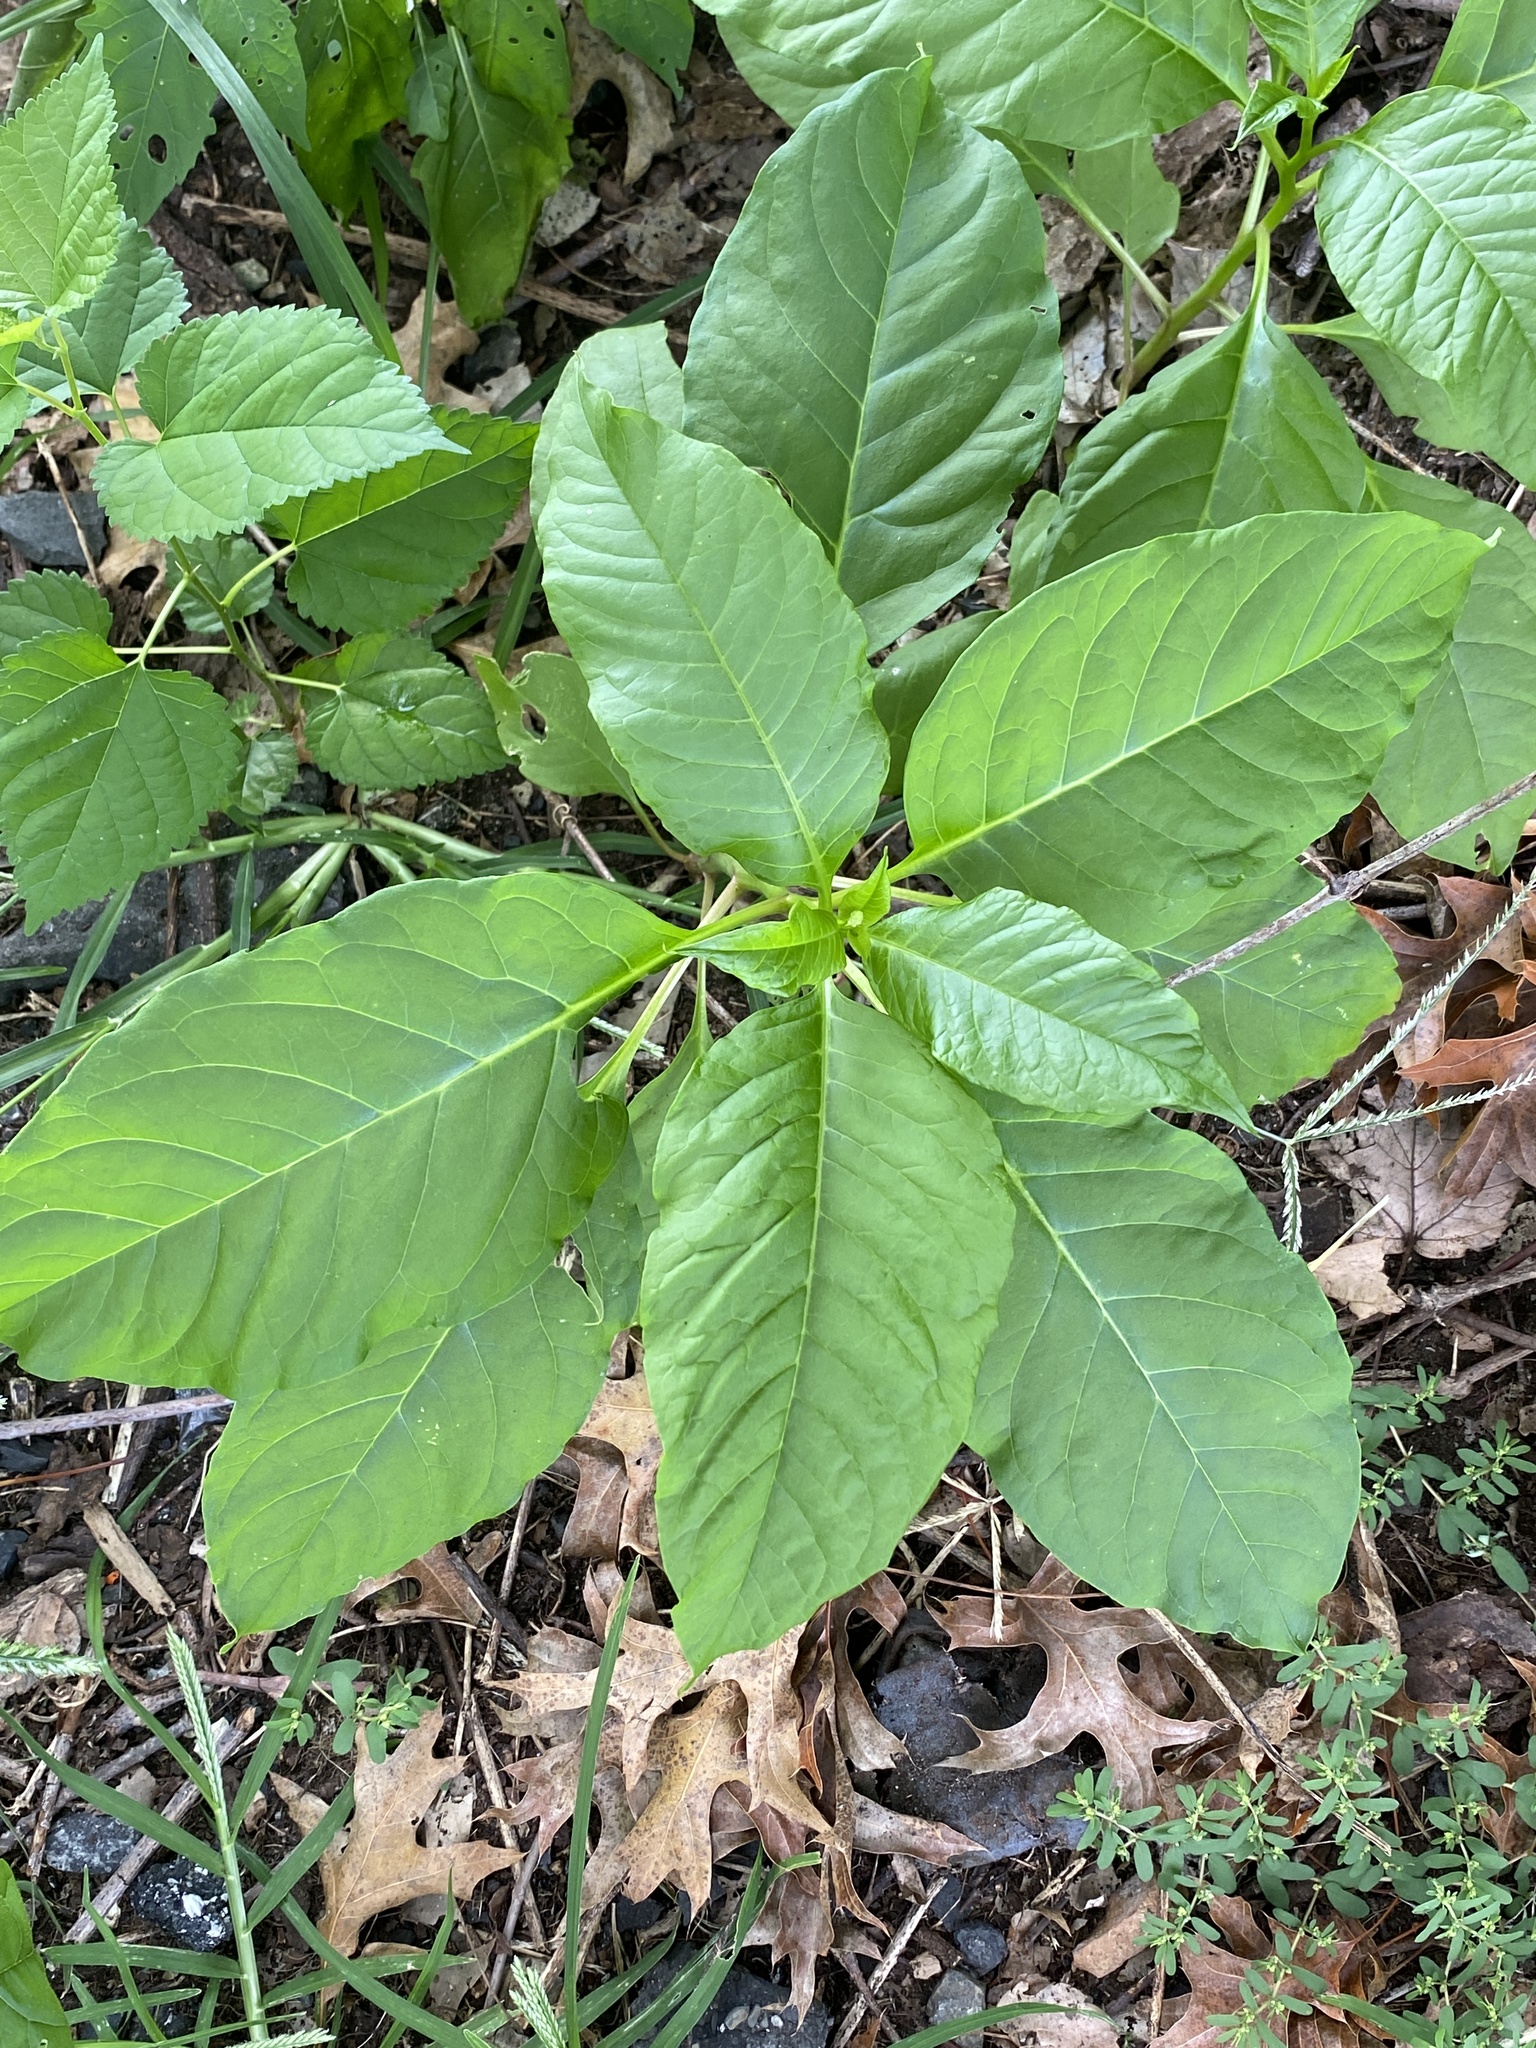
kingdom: Plantae
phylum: Tracheophyta
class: Magnoliopsida
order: Caryophyllales
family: Phytolaccaceae
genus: Phytolacca
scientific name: Phytolacca americana
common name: American pokeweed
